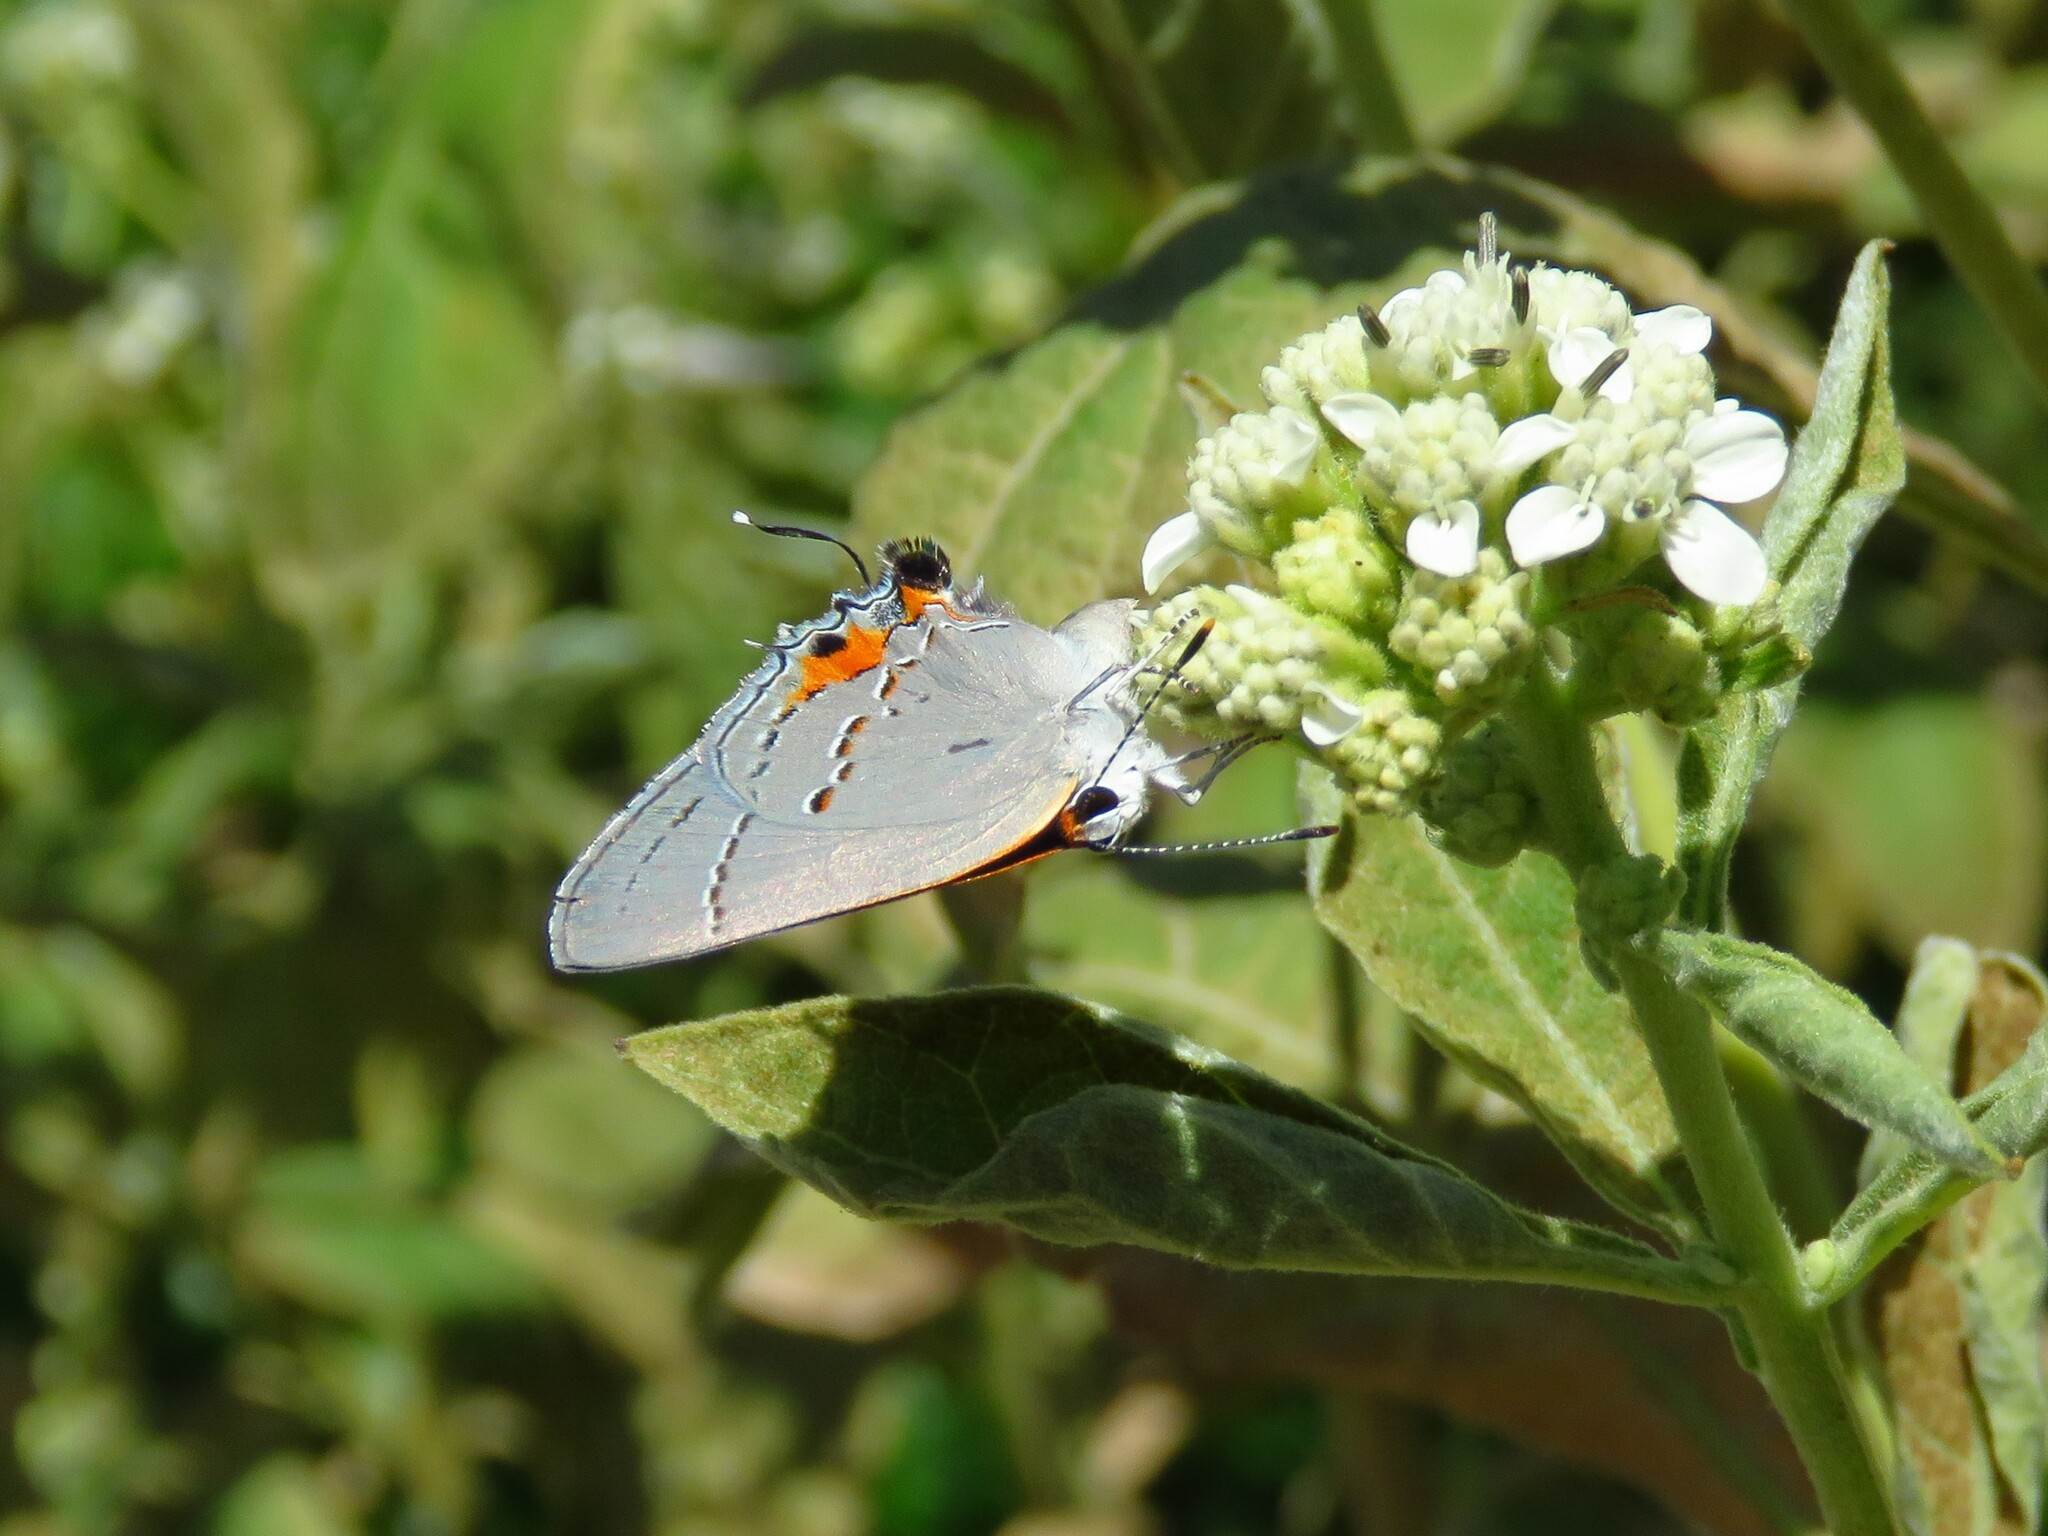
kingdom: Animalia
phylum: Arthropoda
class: Insecta
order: Lepidoptera
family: Lycaenidae
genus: Strymon
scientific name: Strymon melinus
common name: Gray hairstreak
